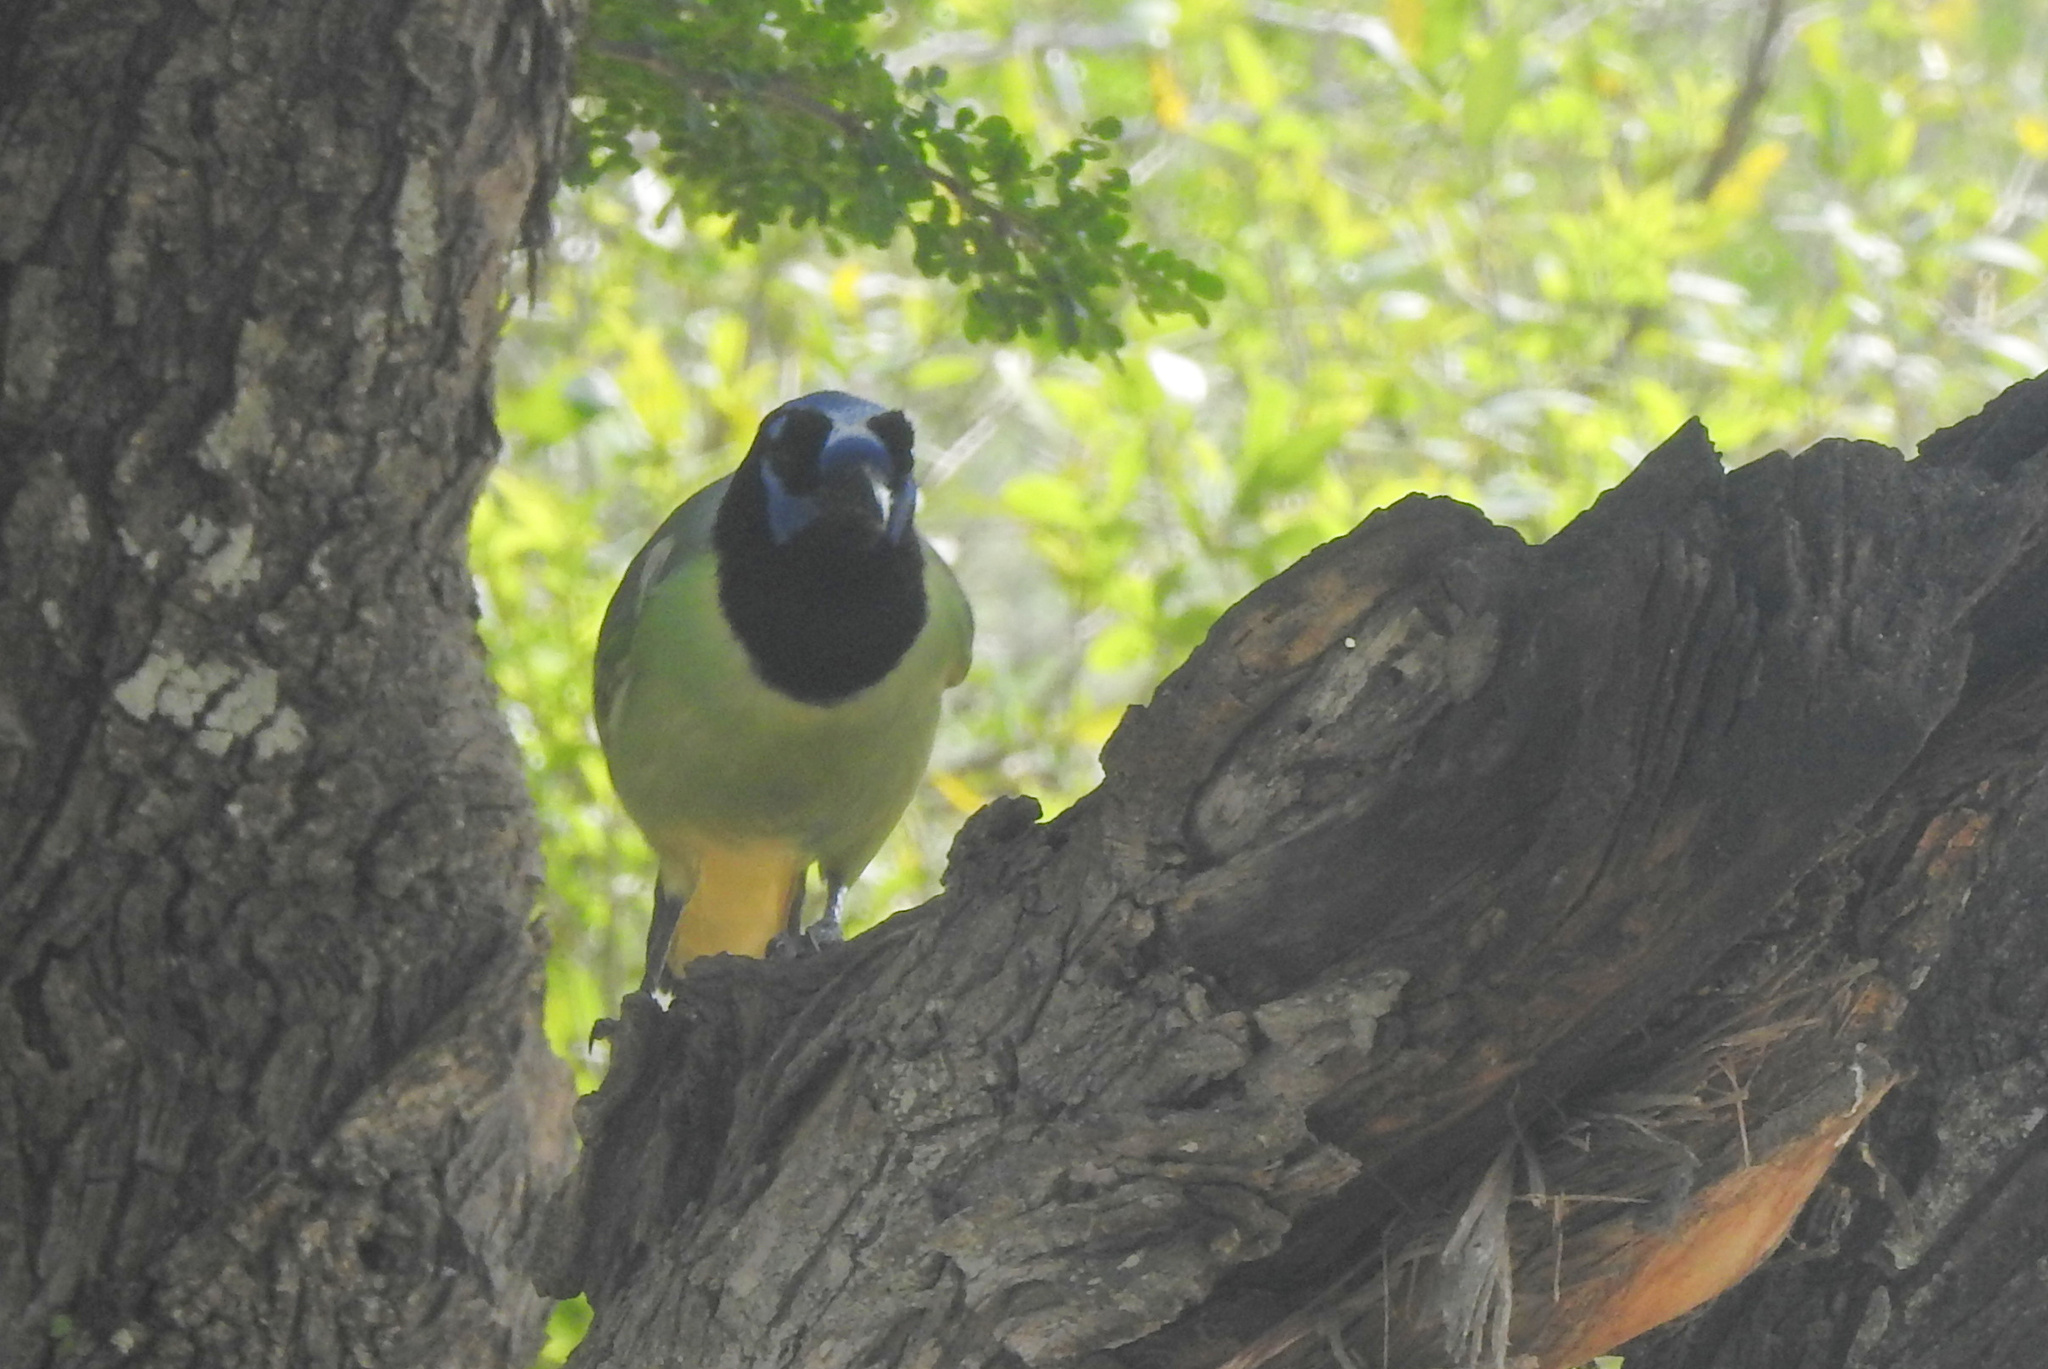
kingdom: Animalia
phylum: Chordata
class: Aves
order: Passeriformes
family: Corvidae
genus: Cyanocorax
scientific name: Cyanocorax yncas
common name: Green jay
